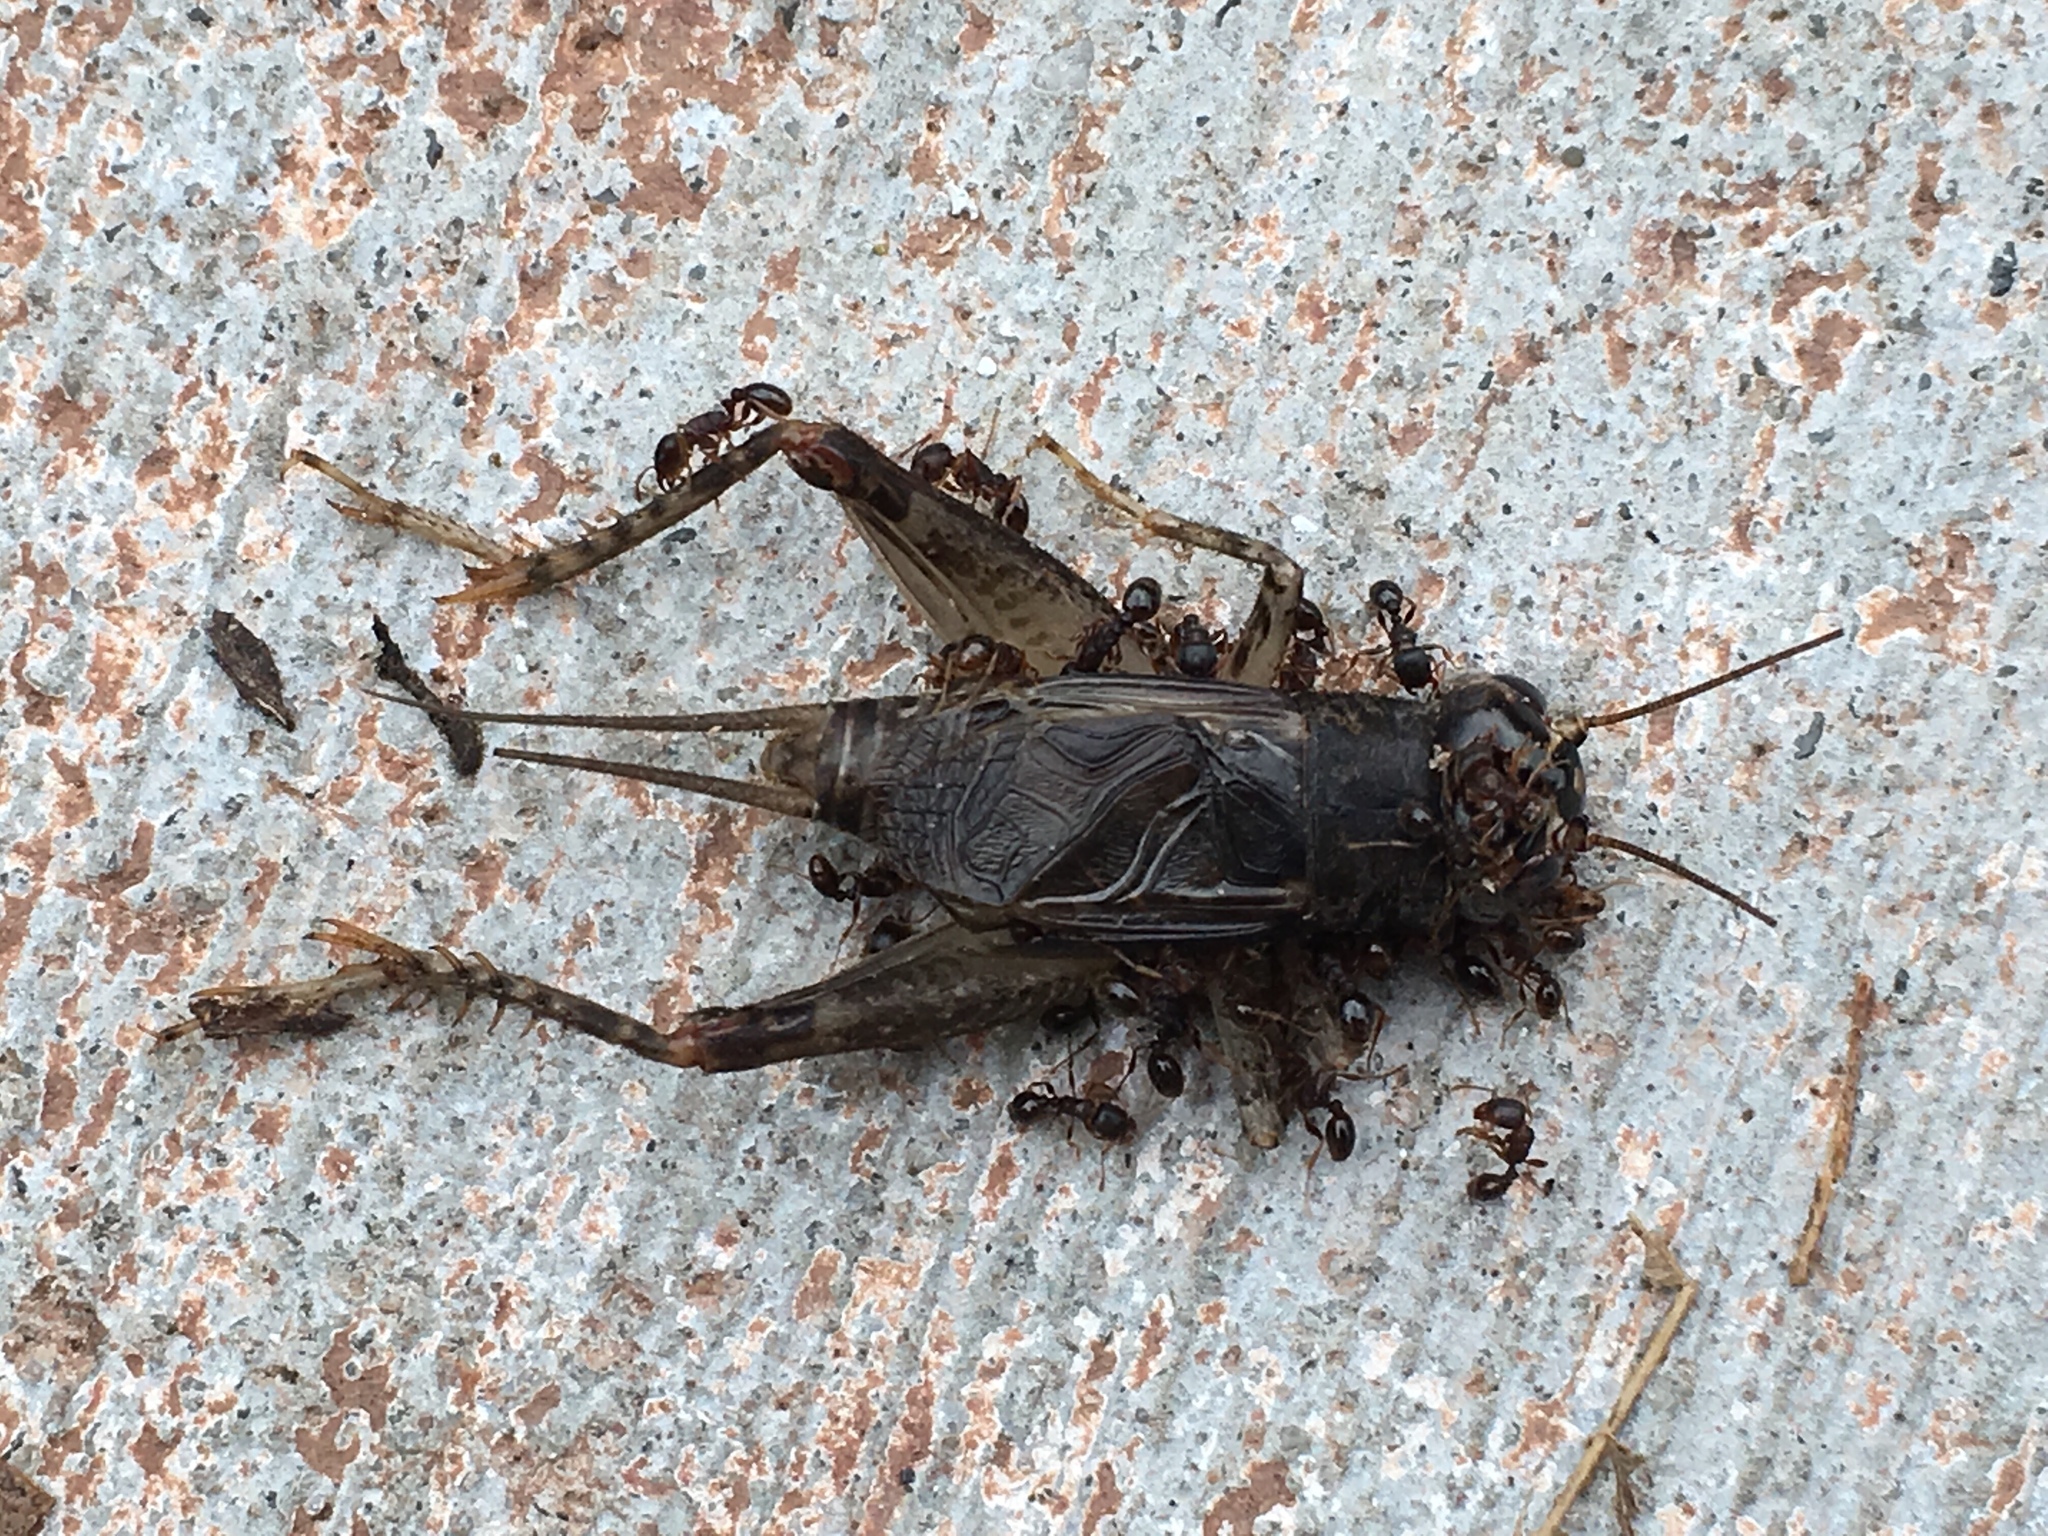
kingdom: Animalia
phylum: Arthropoda
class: Insecta
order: Orthoptera
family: Gryllidae
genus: Velarifictorus
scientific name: Velarifictorus micado
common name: Japanese burrowing cricket
